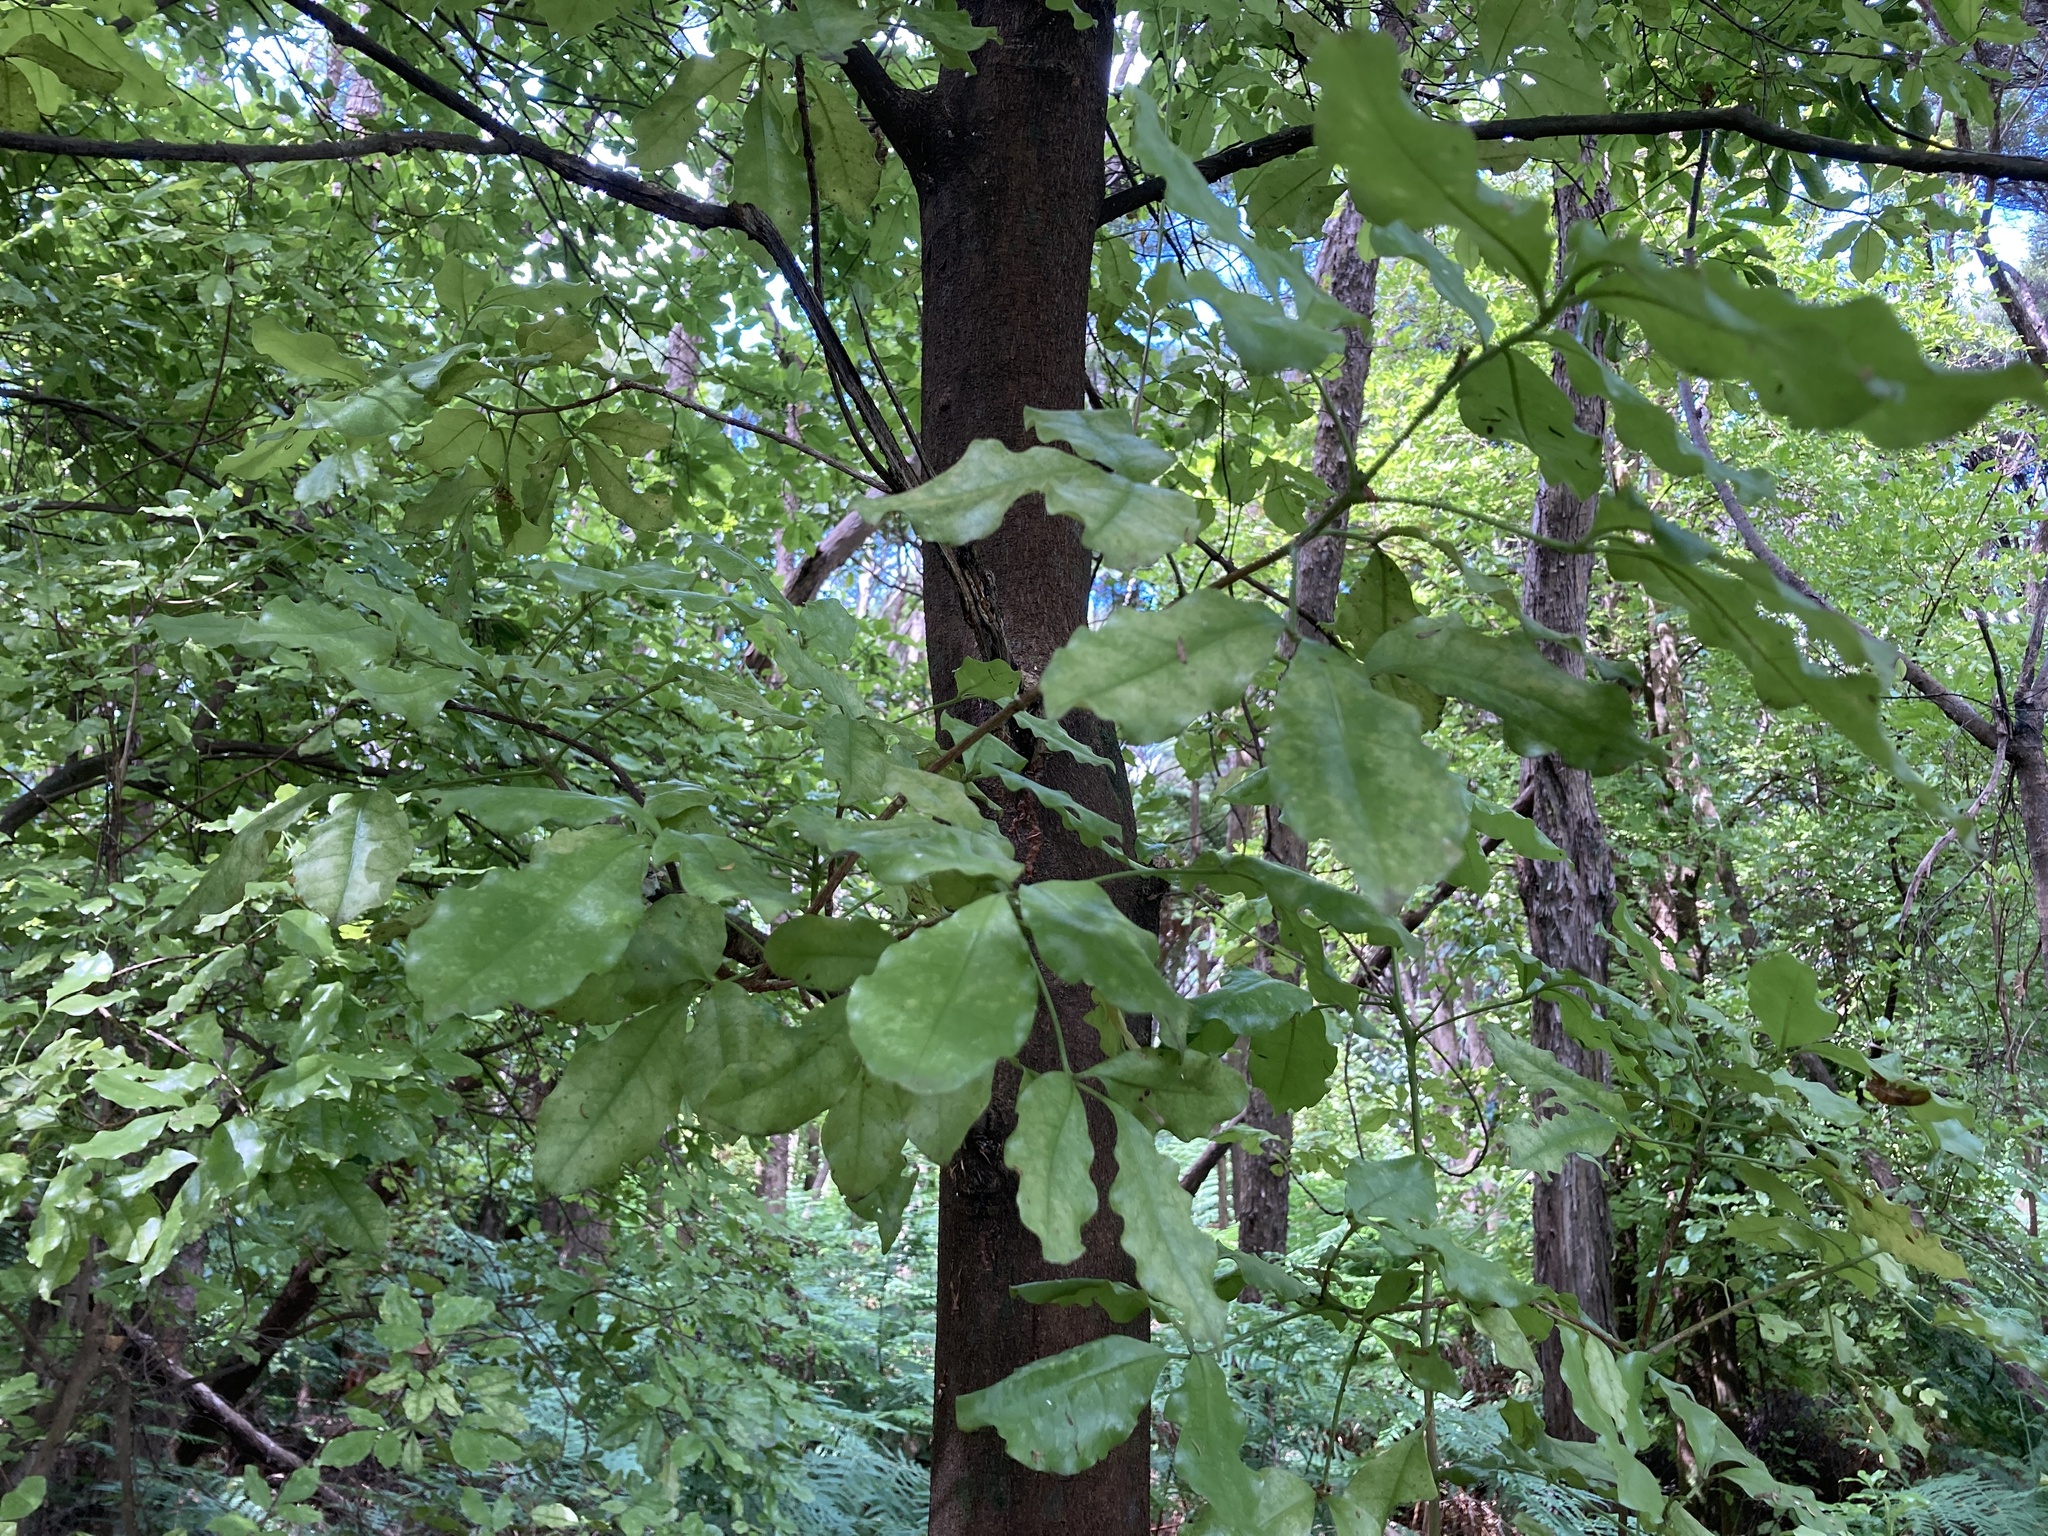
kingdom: Plantae
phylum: Tracheophyta
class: Magnoliopsida
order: Sapindales
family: Rutaceae
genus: Melicope
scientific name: Melicope ternata
